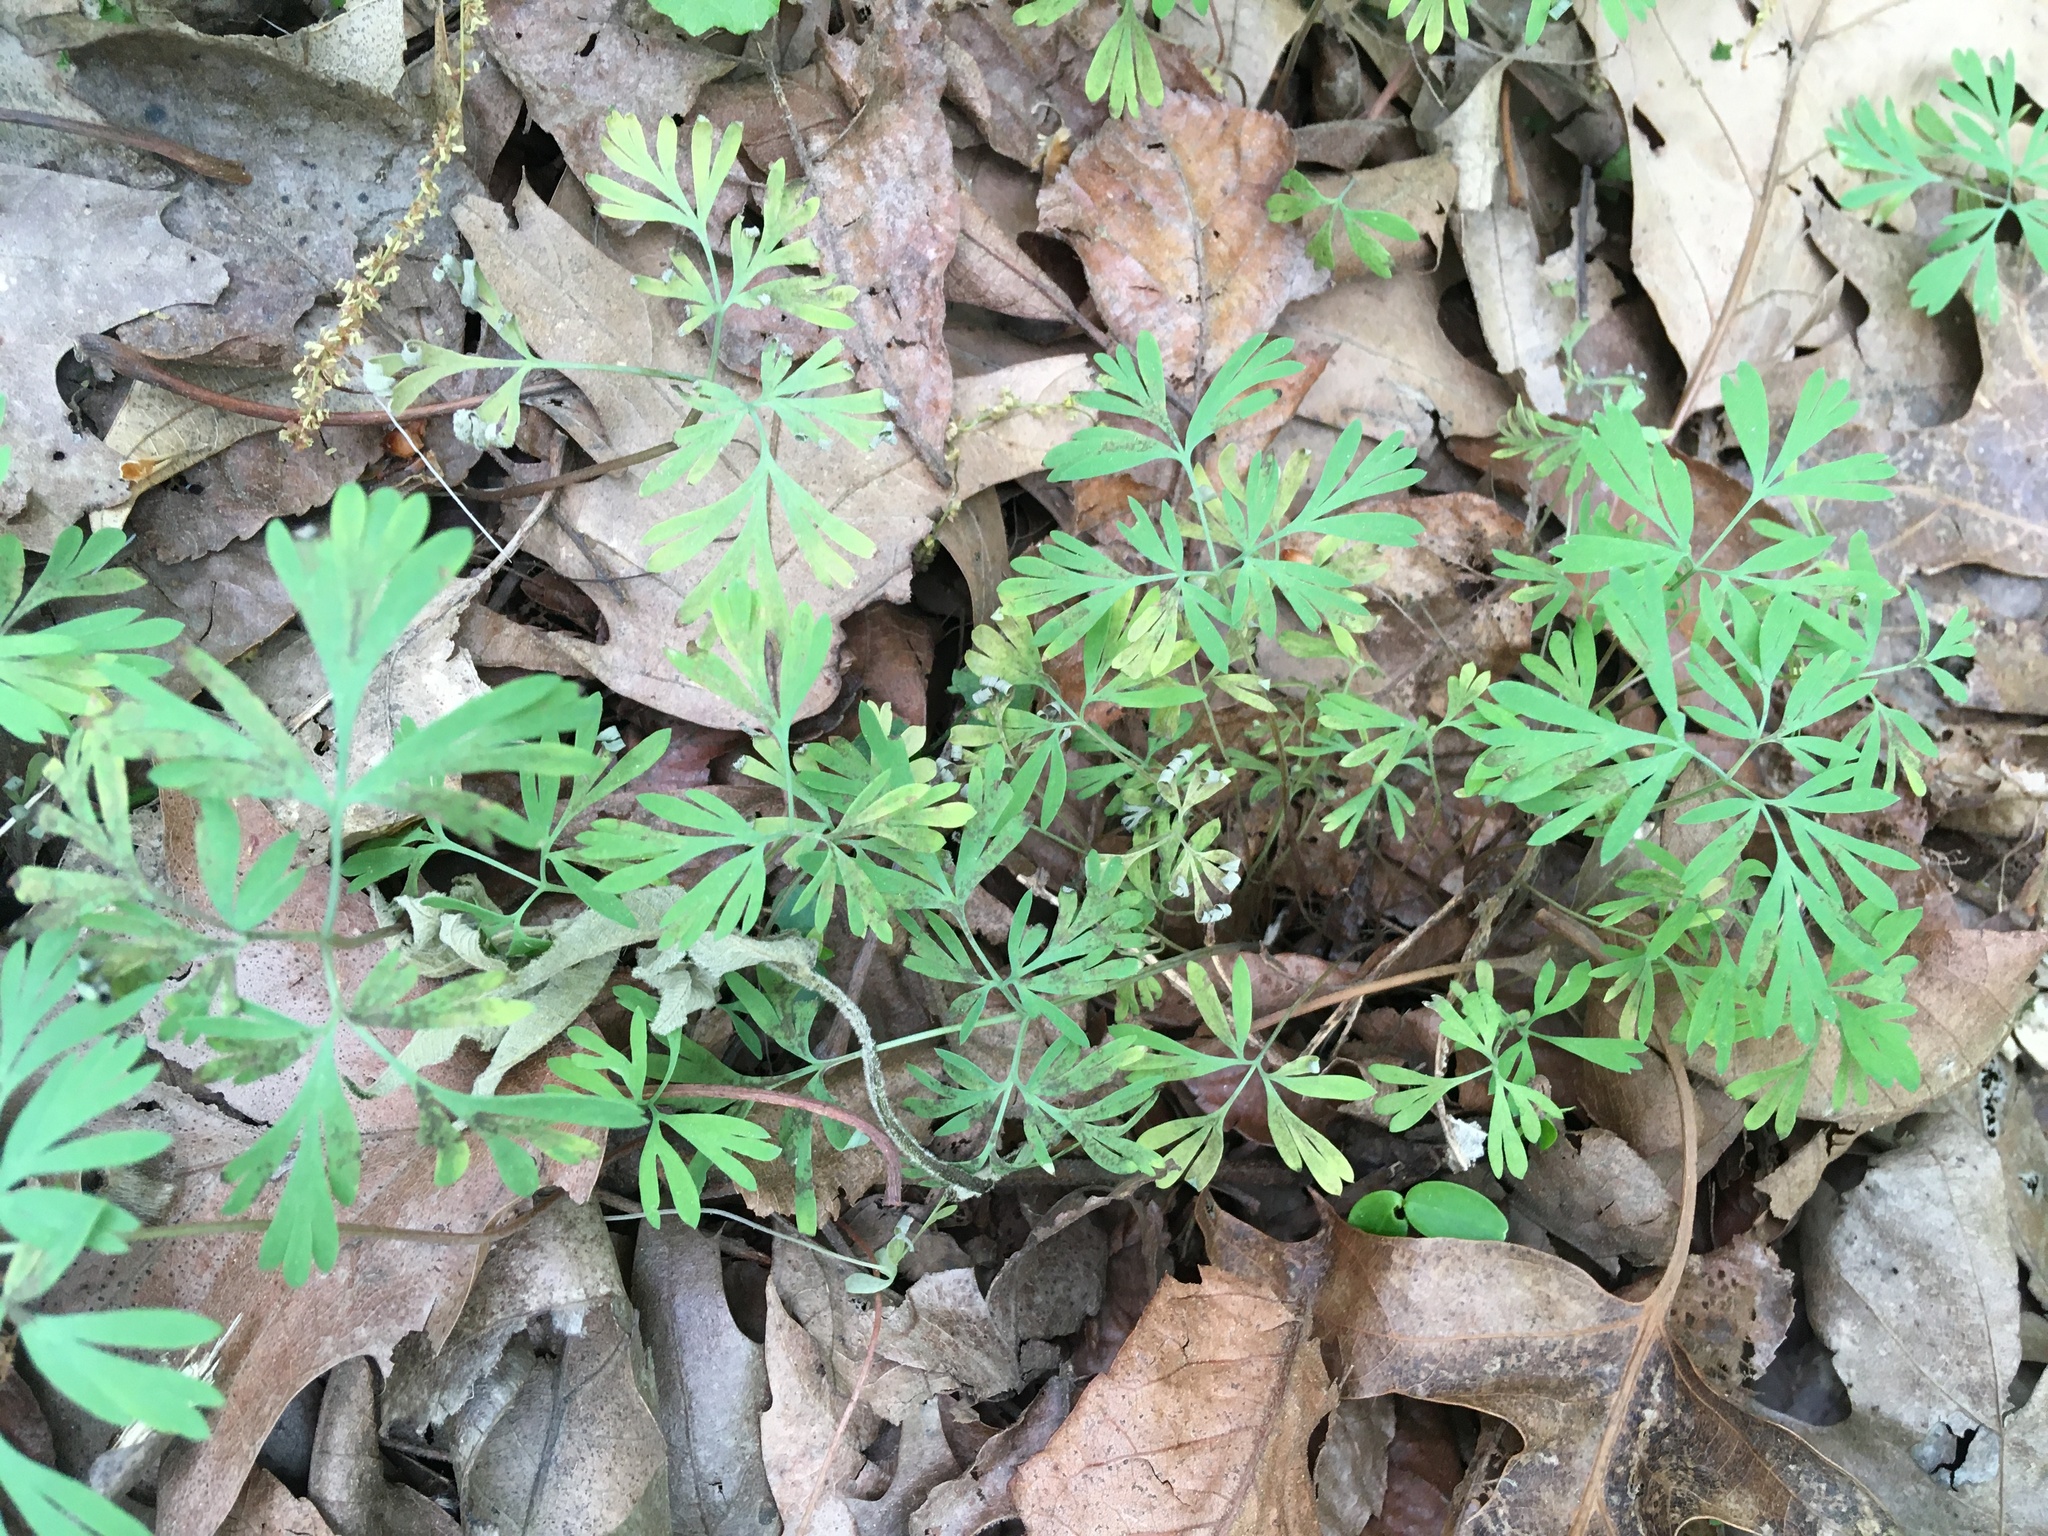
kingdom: Plantae
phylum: Tracheophyta
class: Magnoliopsida
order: Ranunculales
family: Papaveraceae
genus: Dicentra
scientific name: Dicentra cucullaria
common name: Dutchman's breeches
